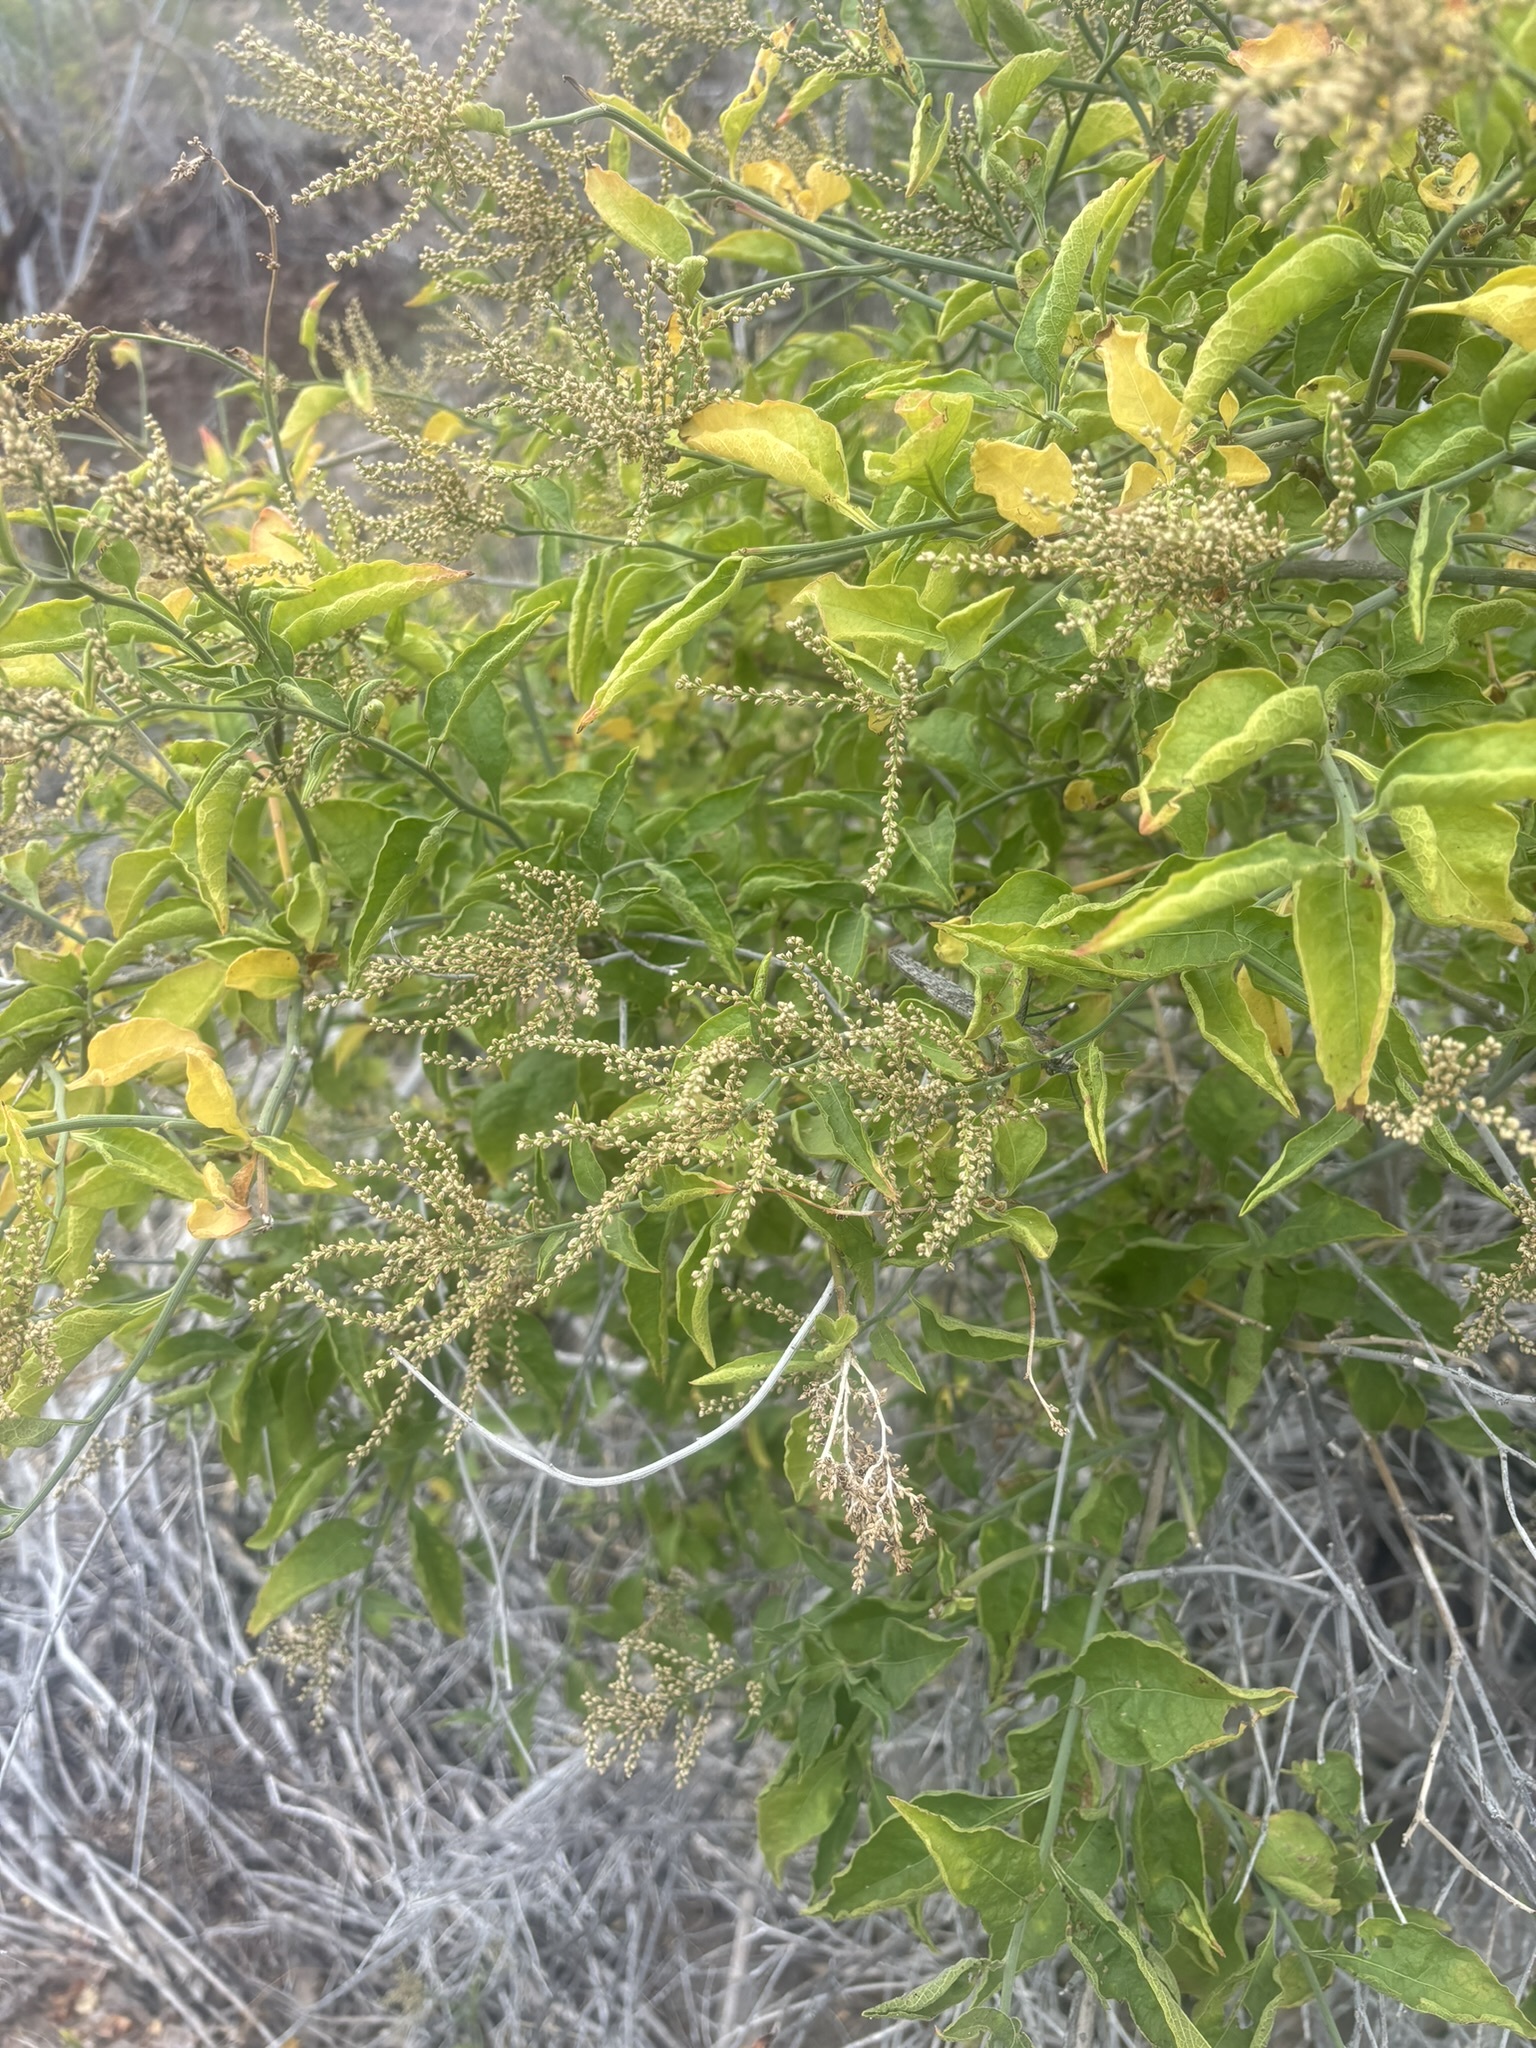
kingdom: Plantae
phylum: Tracheophyta
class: Magnoliopsida
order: Caryophyllales
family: Amaranthaceae
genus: Celosia
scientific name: Celosia floribunda
